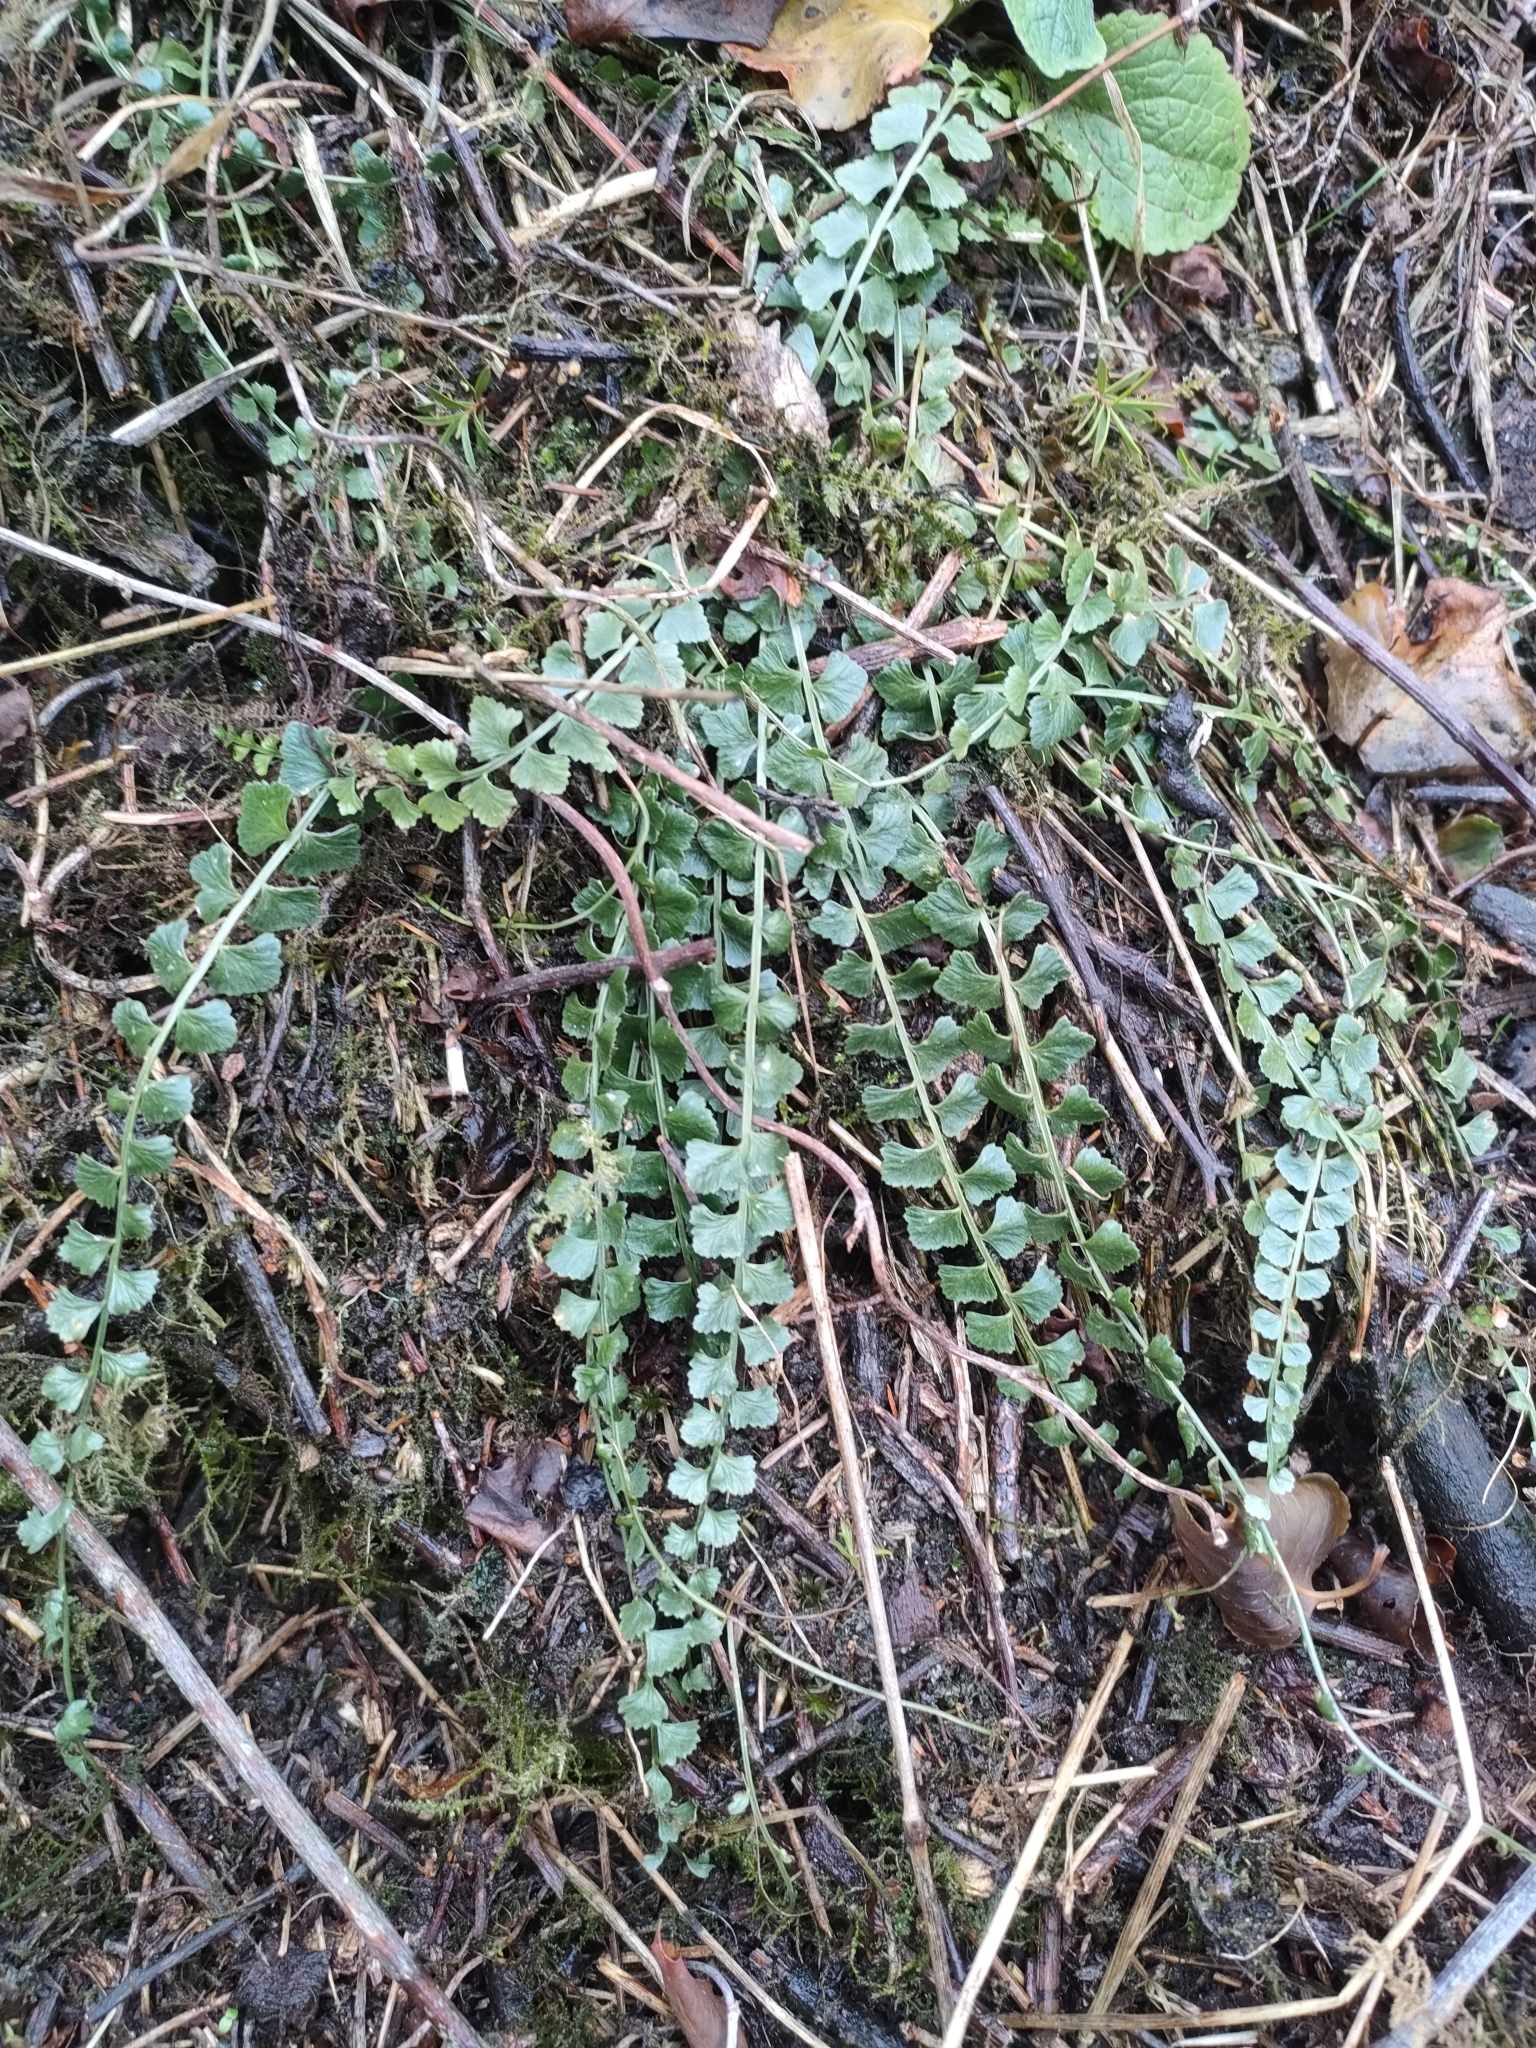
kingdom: Plantae
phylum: Tracheophyta
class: Polypodiopsida
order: Polypodiales
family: Aspleniaceae
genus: Asplenium
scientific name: Asplenium flabellifolium
